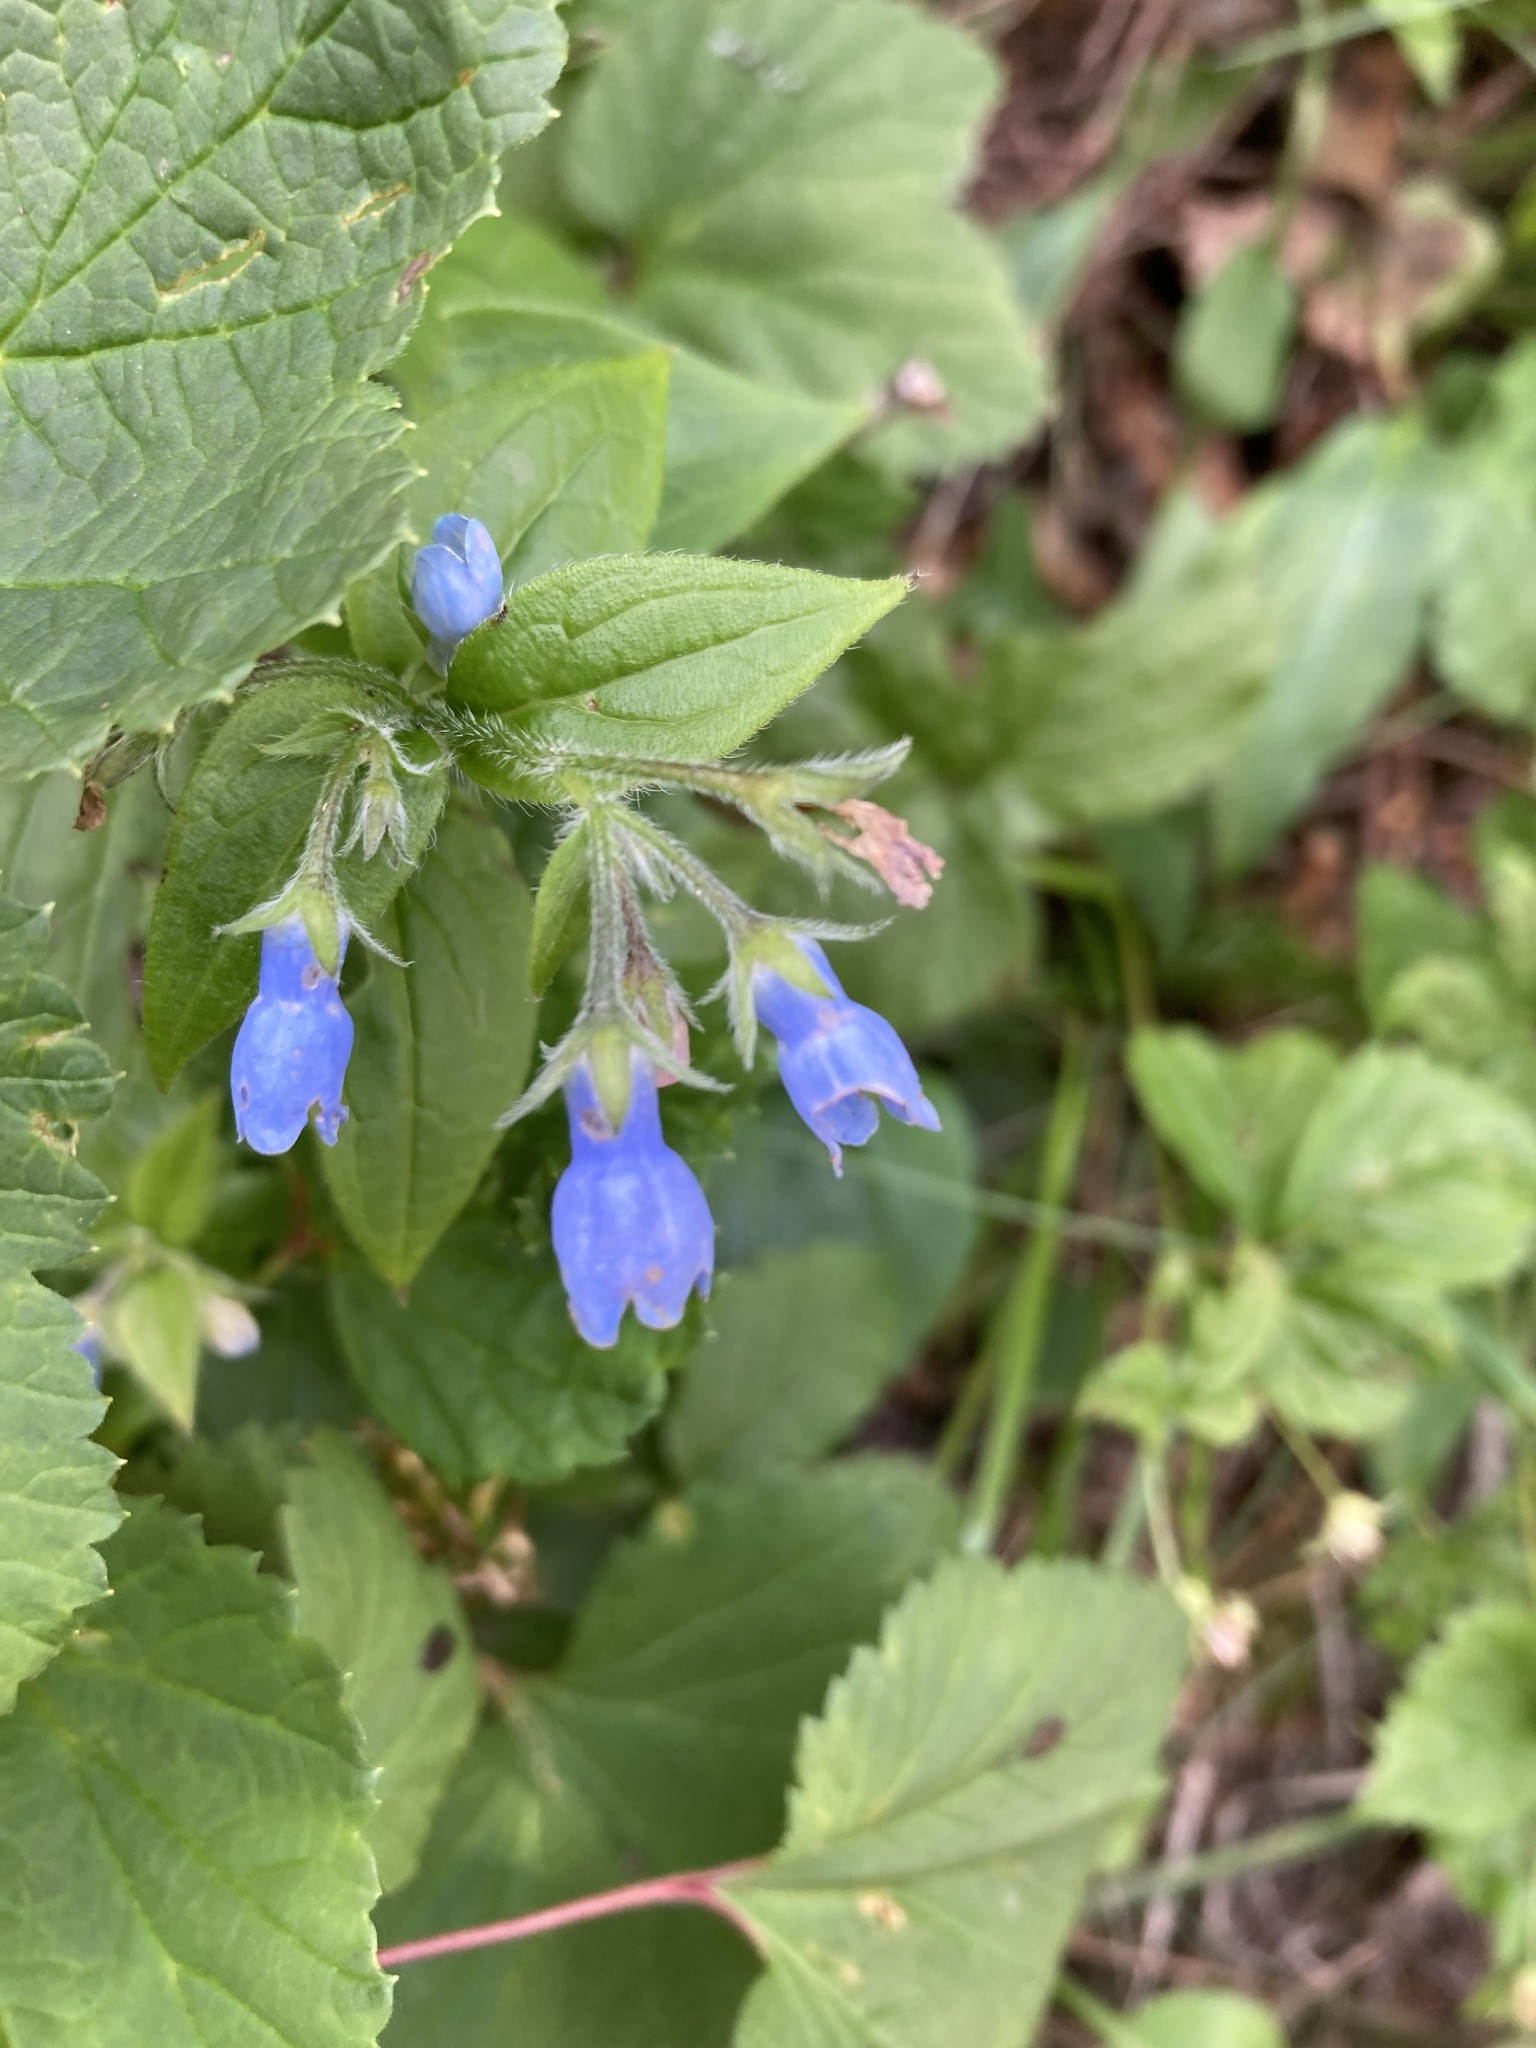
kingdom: Plantae
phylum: Tracheophyta
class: Magnoliopsida
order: Boraginales
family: Boraginaceae
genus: Mertensia
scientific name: Mertensia paniculata
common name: Panicled bluebells
